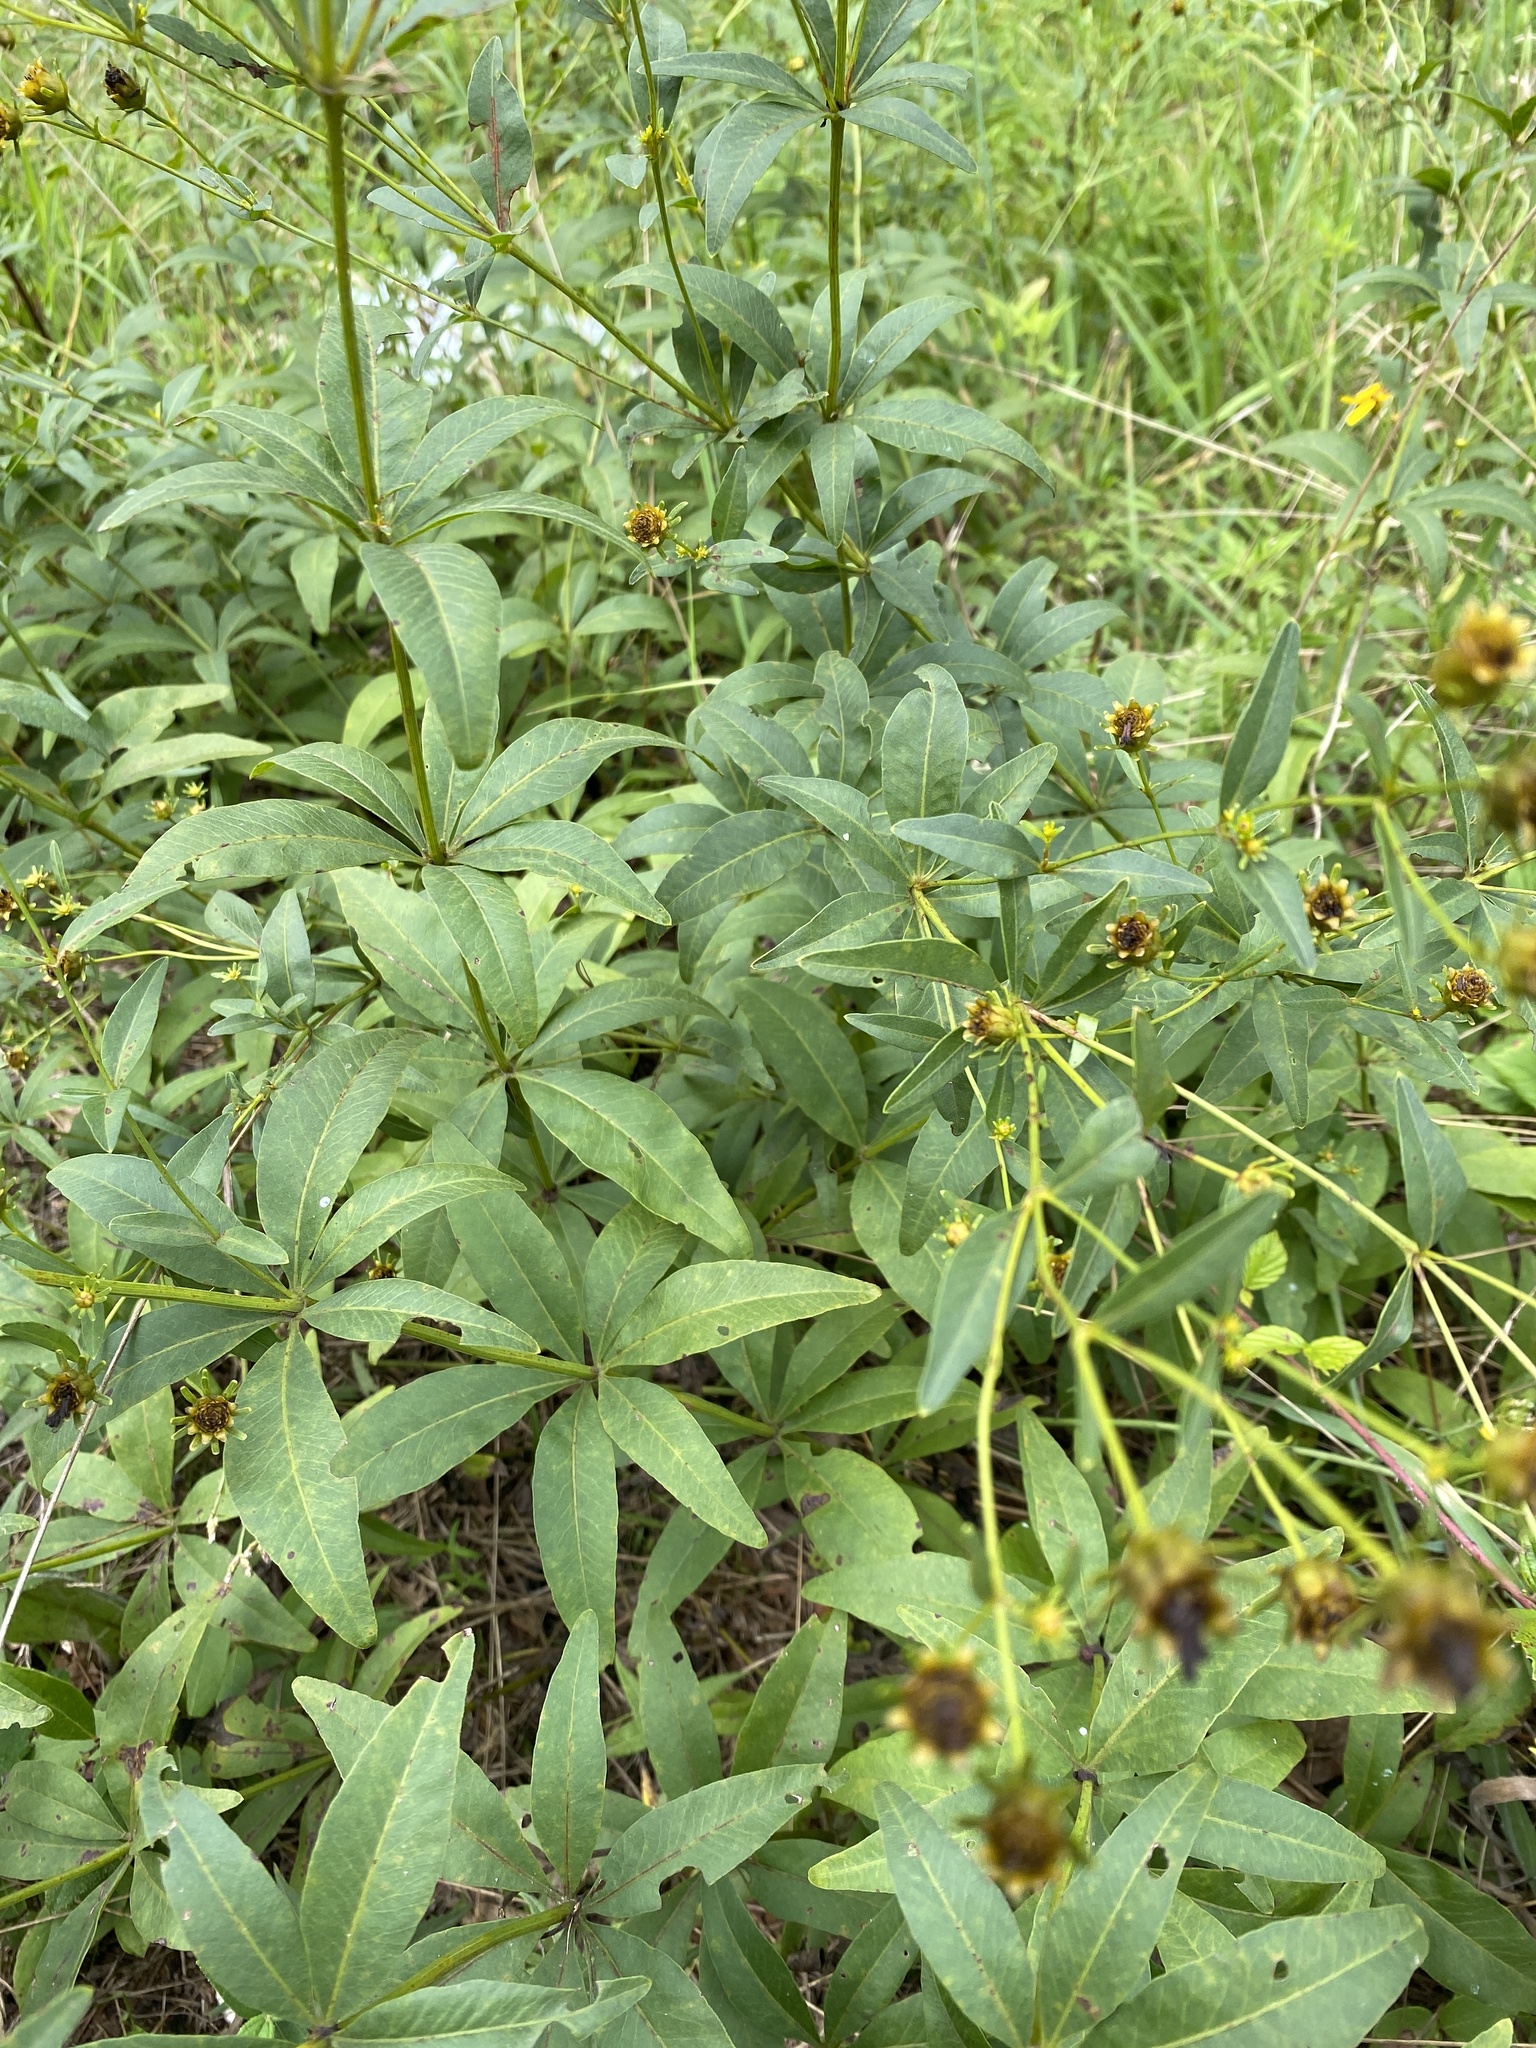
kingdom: Plantae
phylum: Tracheophyta
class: Magnoliopsida
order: Asterales
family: Asteraceae
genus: Coreopsis
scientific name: Coreopsis major
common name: Forest tickseed
